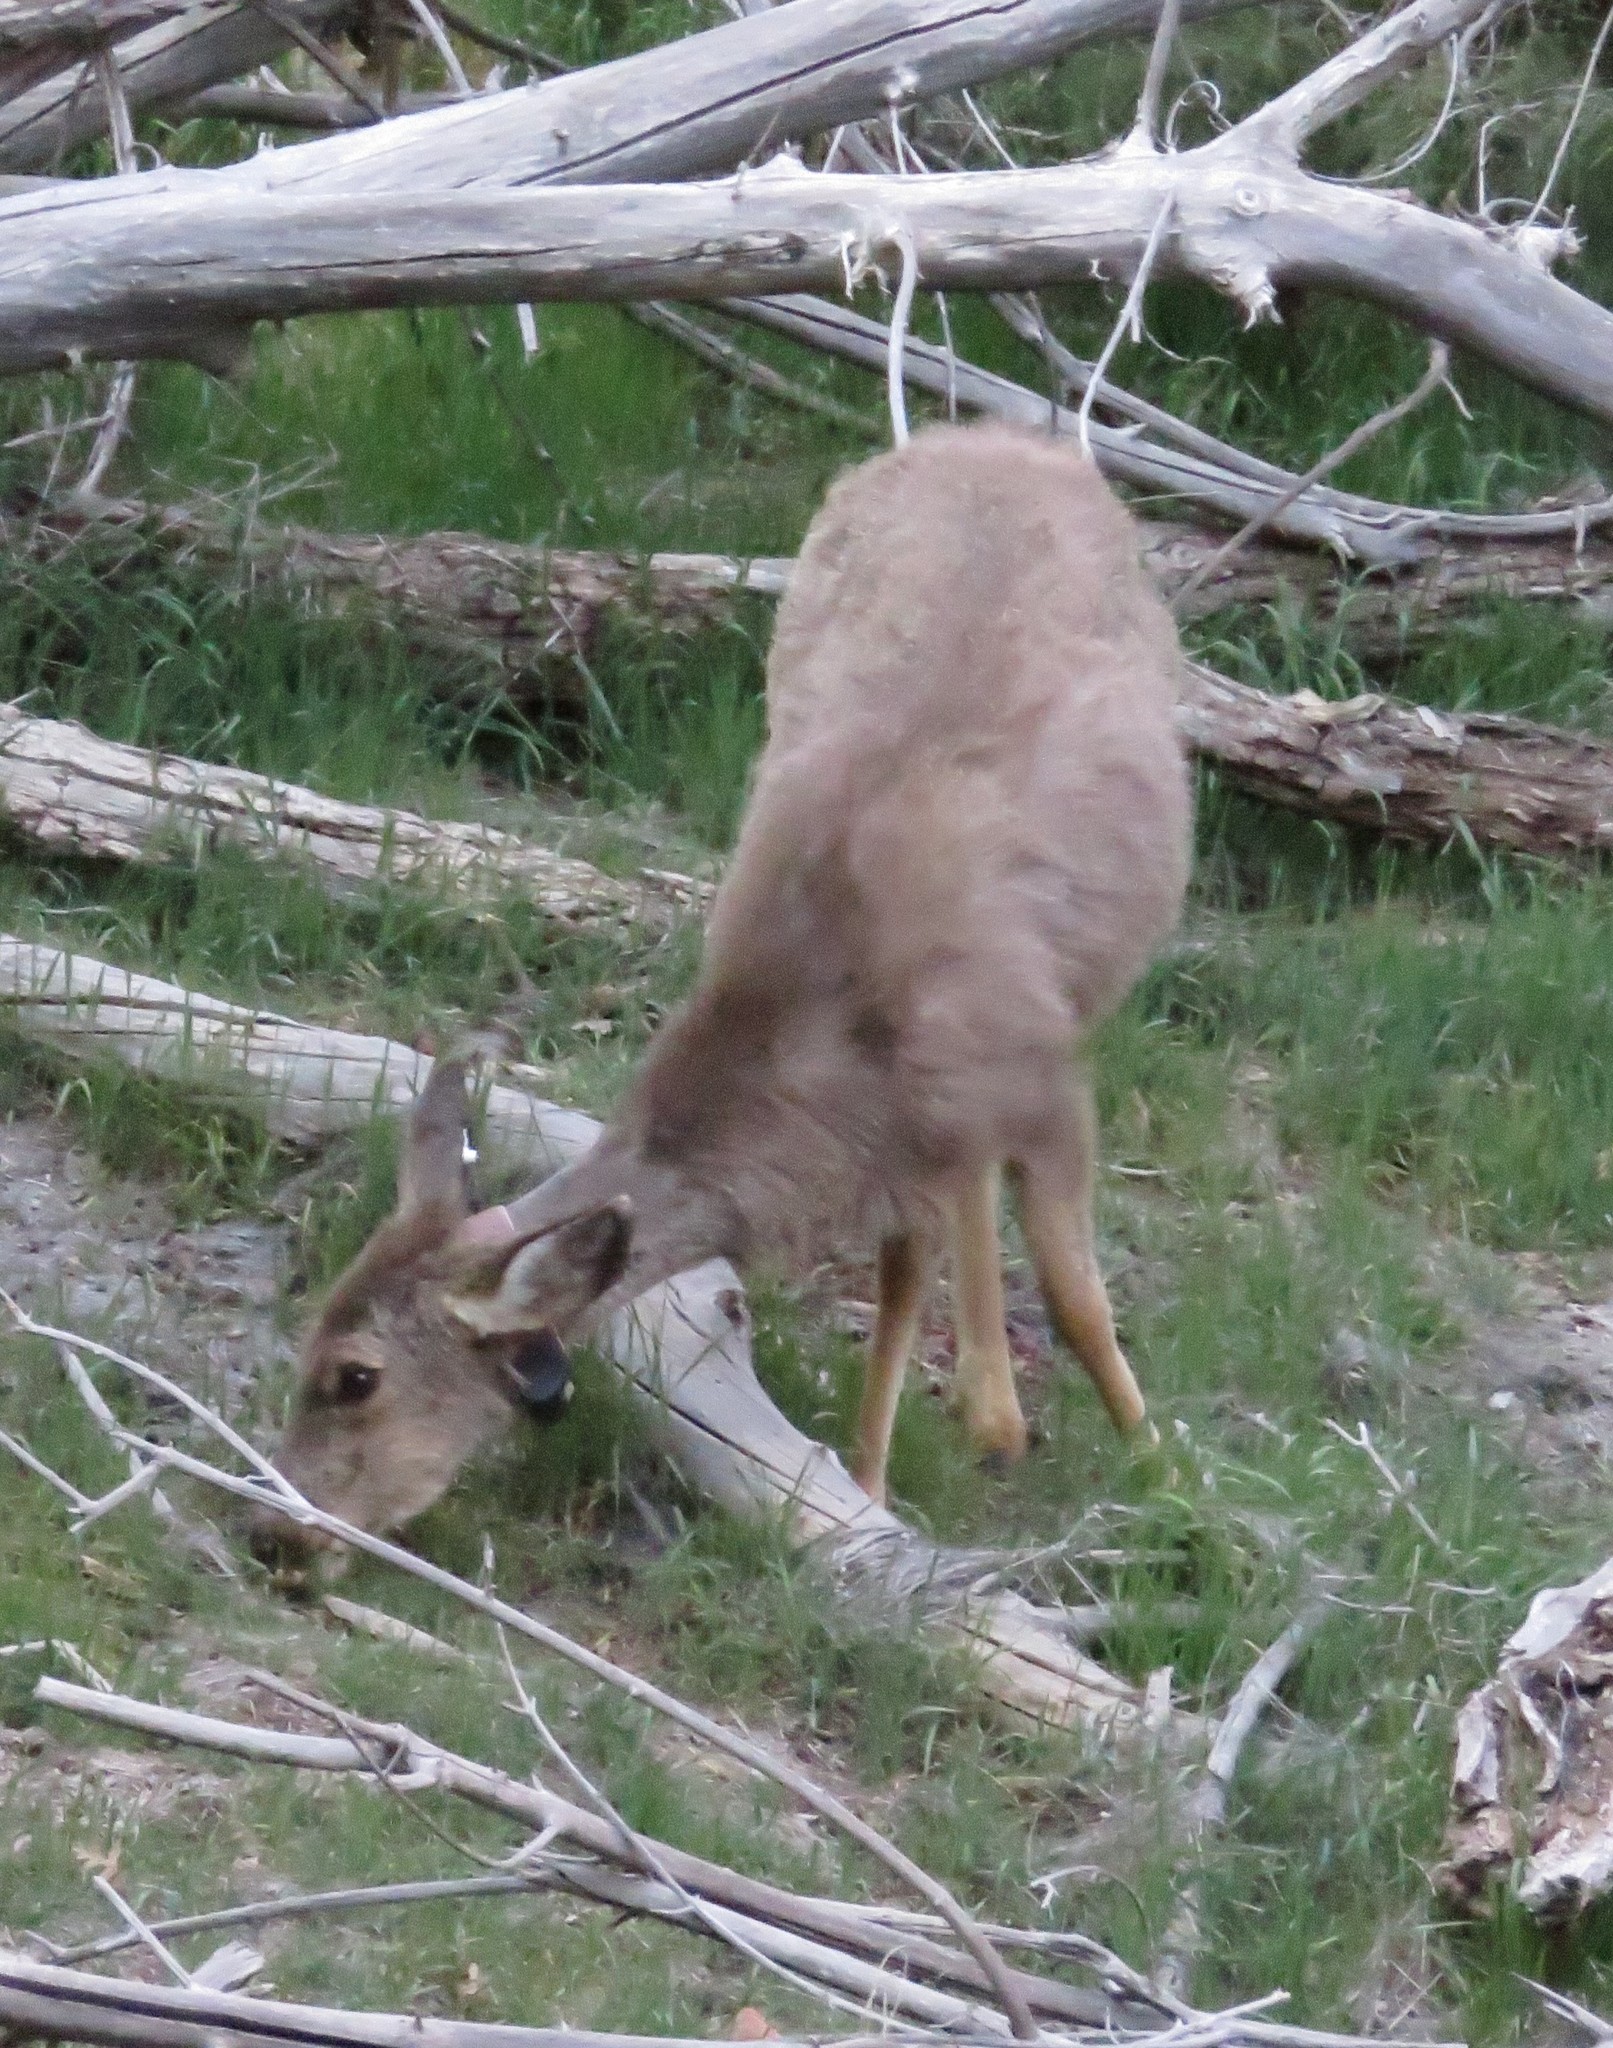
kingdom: Animalia
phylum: Chordata
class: Mammalia
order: Artiodactyla
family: Cervidae
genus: Odocoileus
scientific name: Odocoileus hemionus
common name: Mule deer
